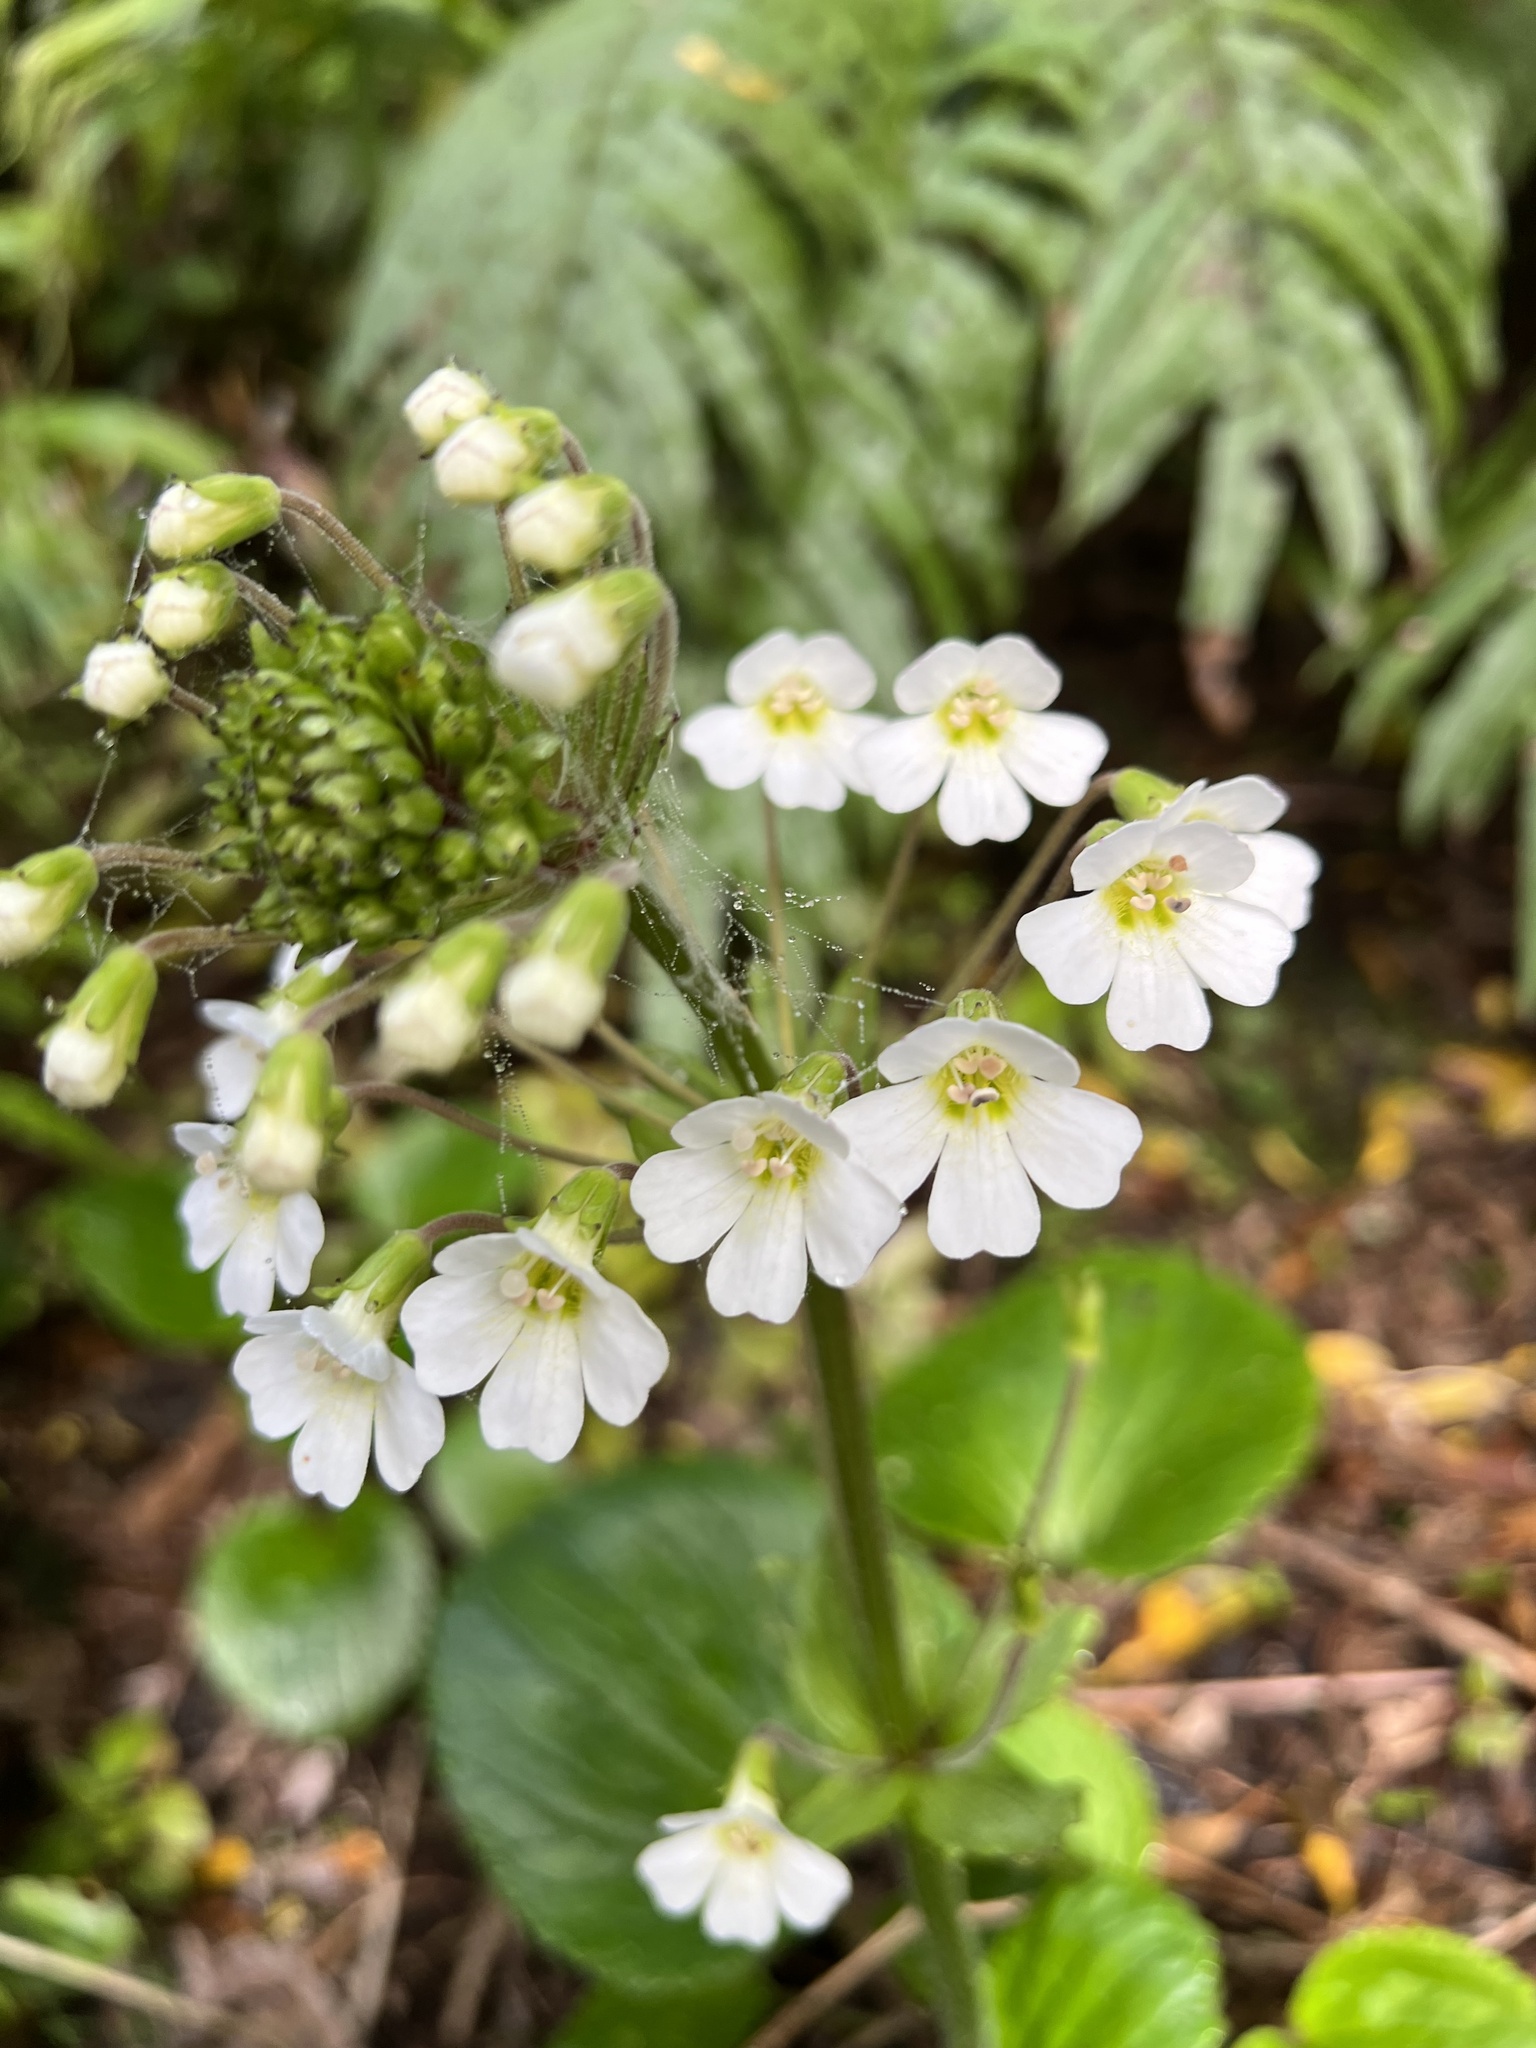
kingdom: Plantae
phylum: Tracheophyta
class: Magnoliopsida
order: Lamiales
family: Plantaginaceae
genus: Ourisia
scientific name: Ourisia macrophylla
